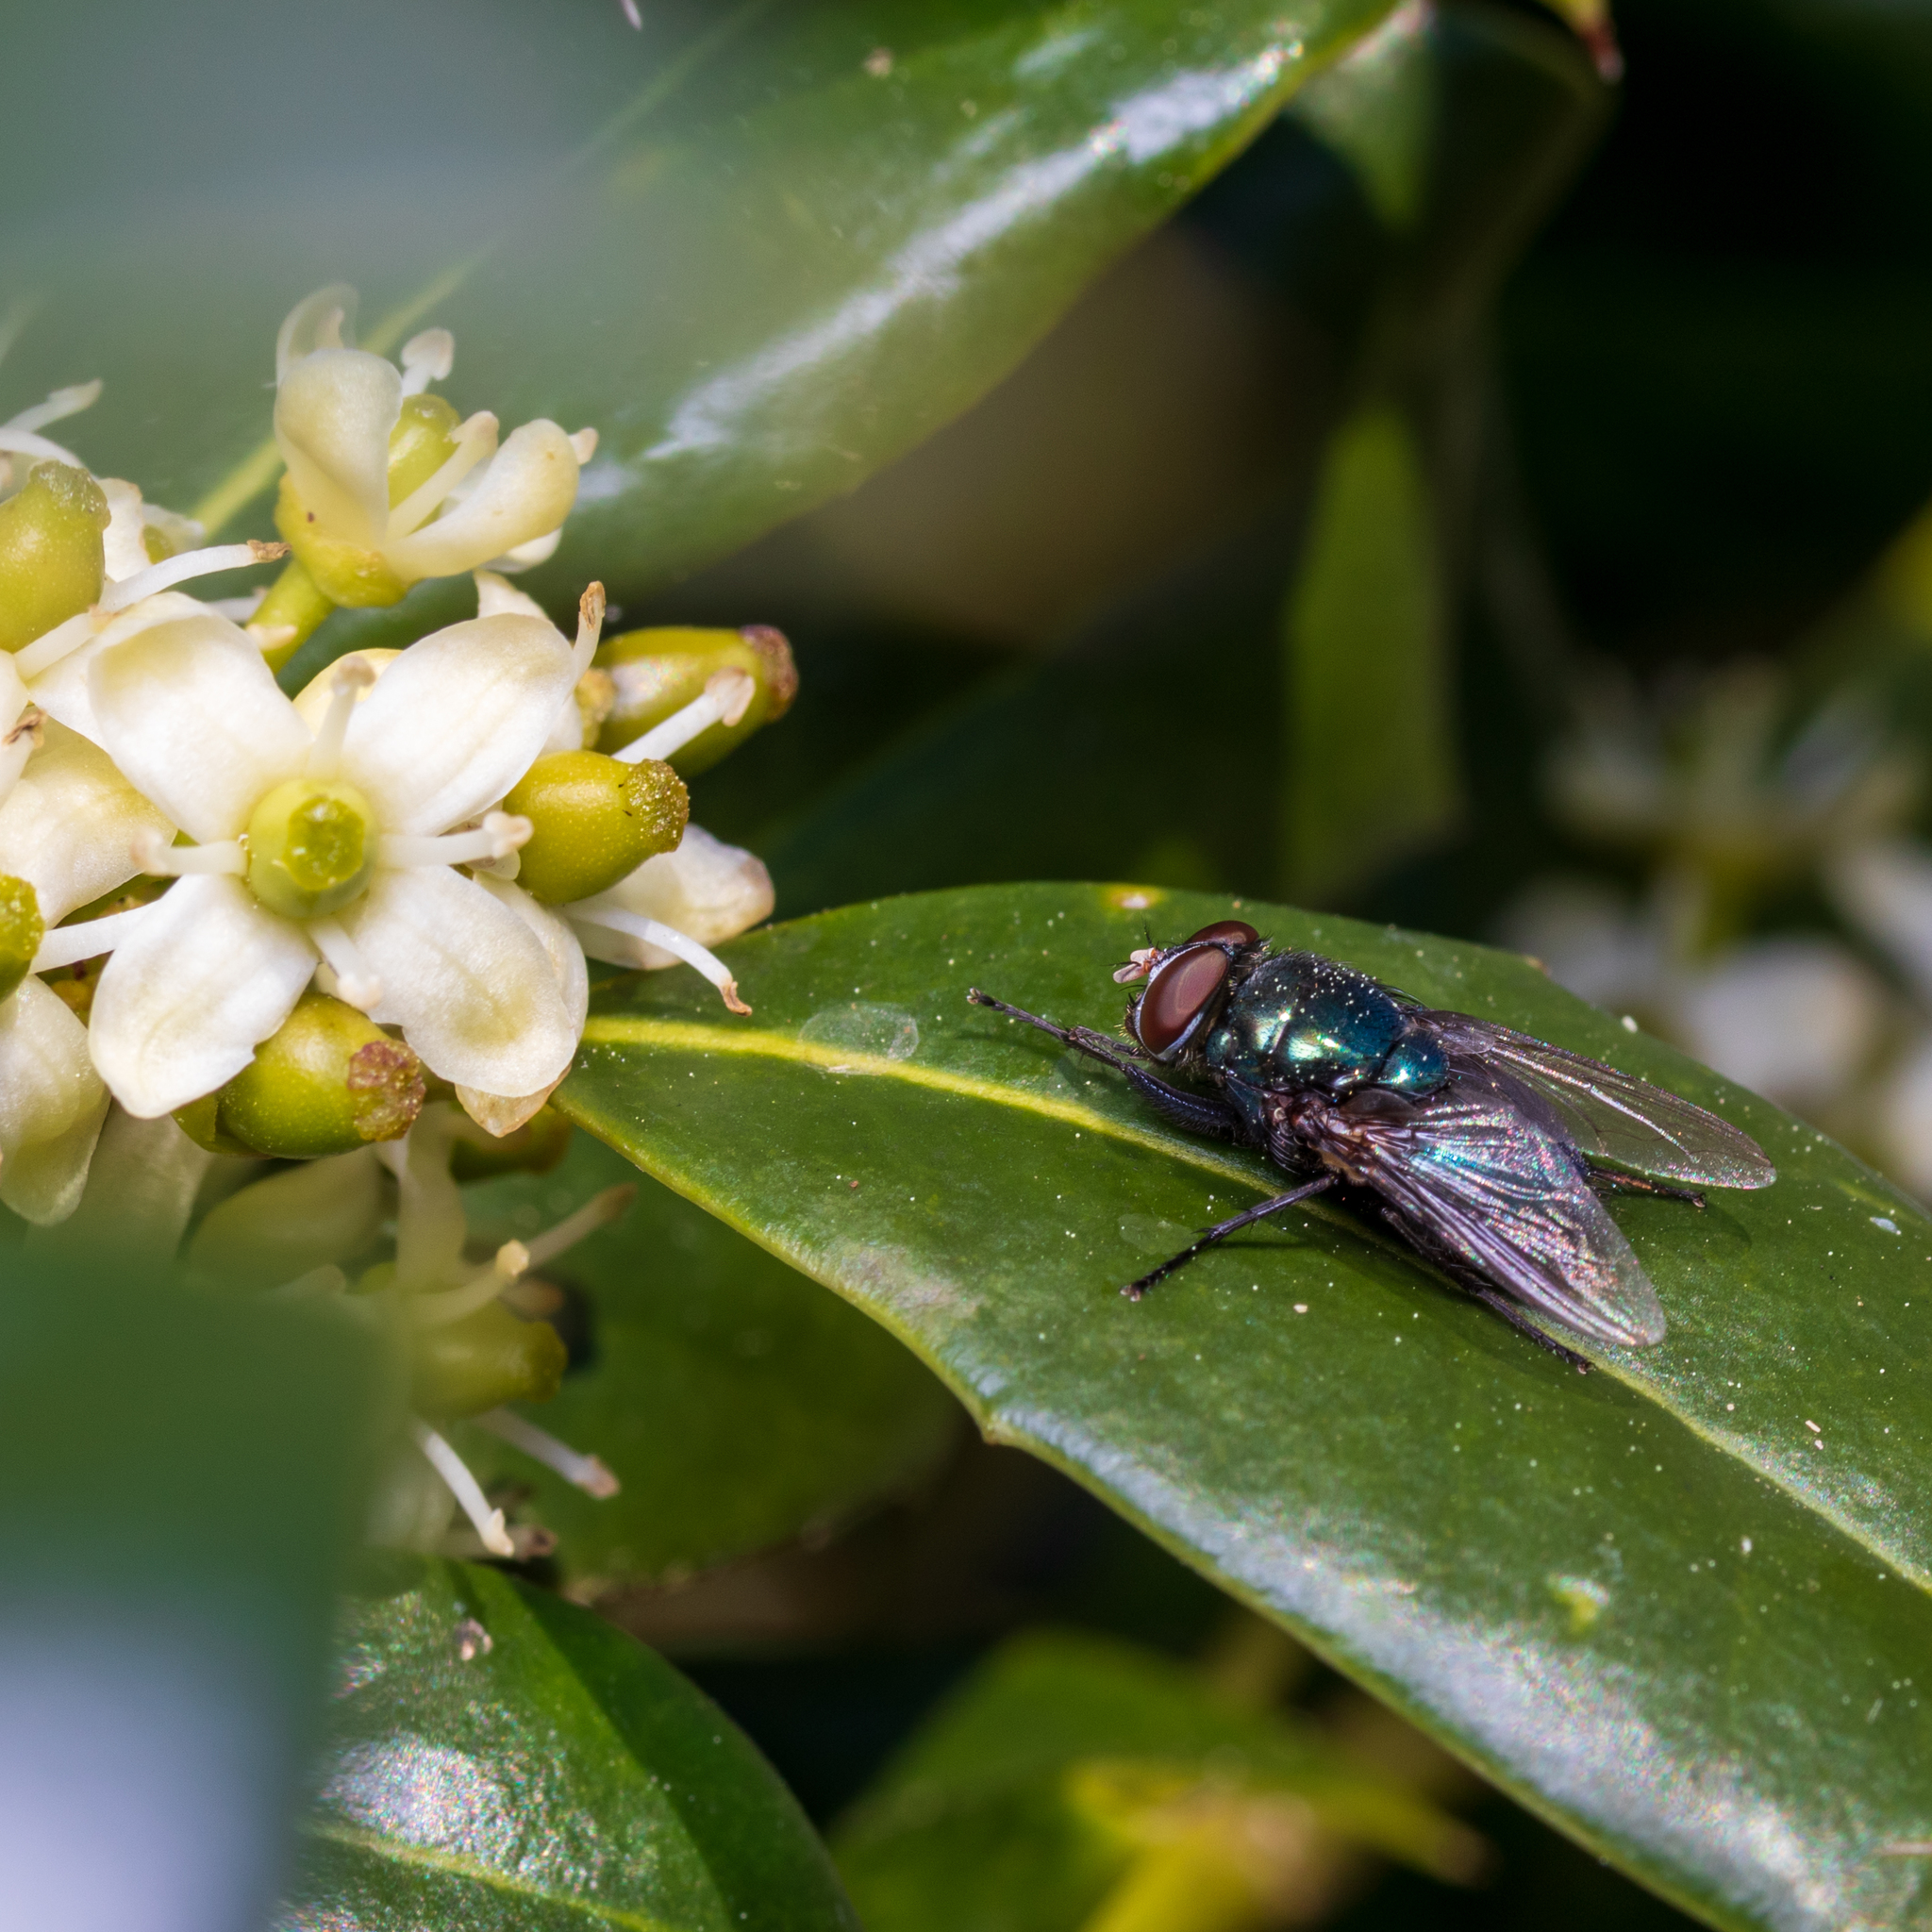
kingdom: Animalia
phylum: Arthropoda
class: Insecta
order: Diptera
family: Calliphoridae
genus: Phormia
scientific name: Phormia regina
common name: Black blow fly
